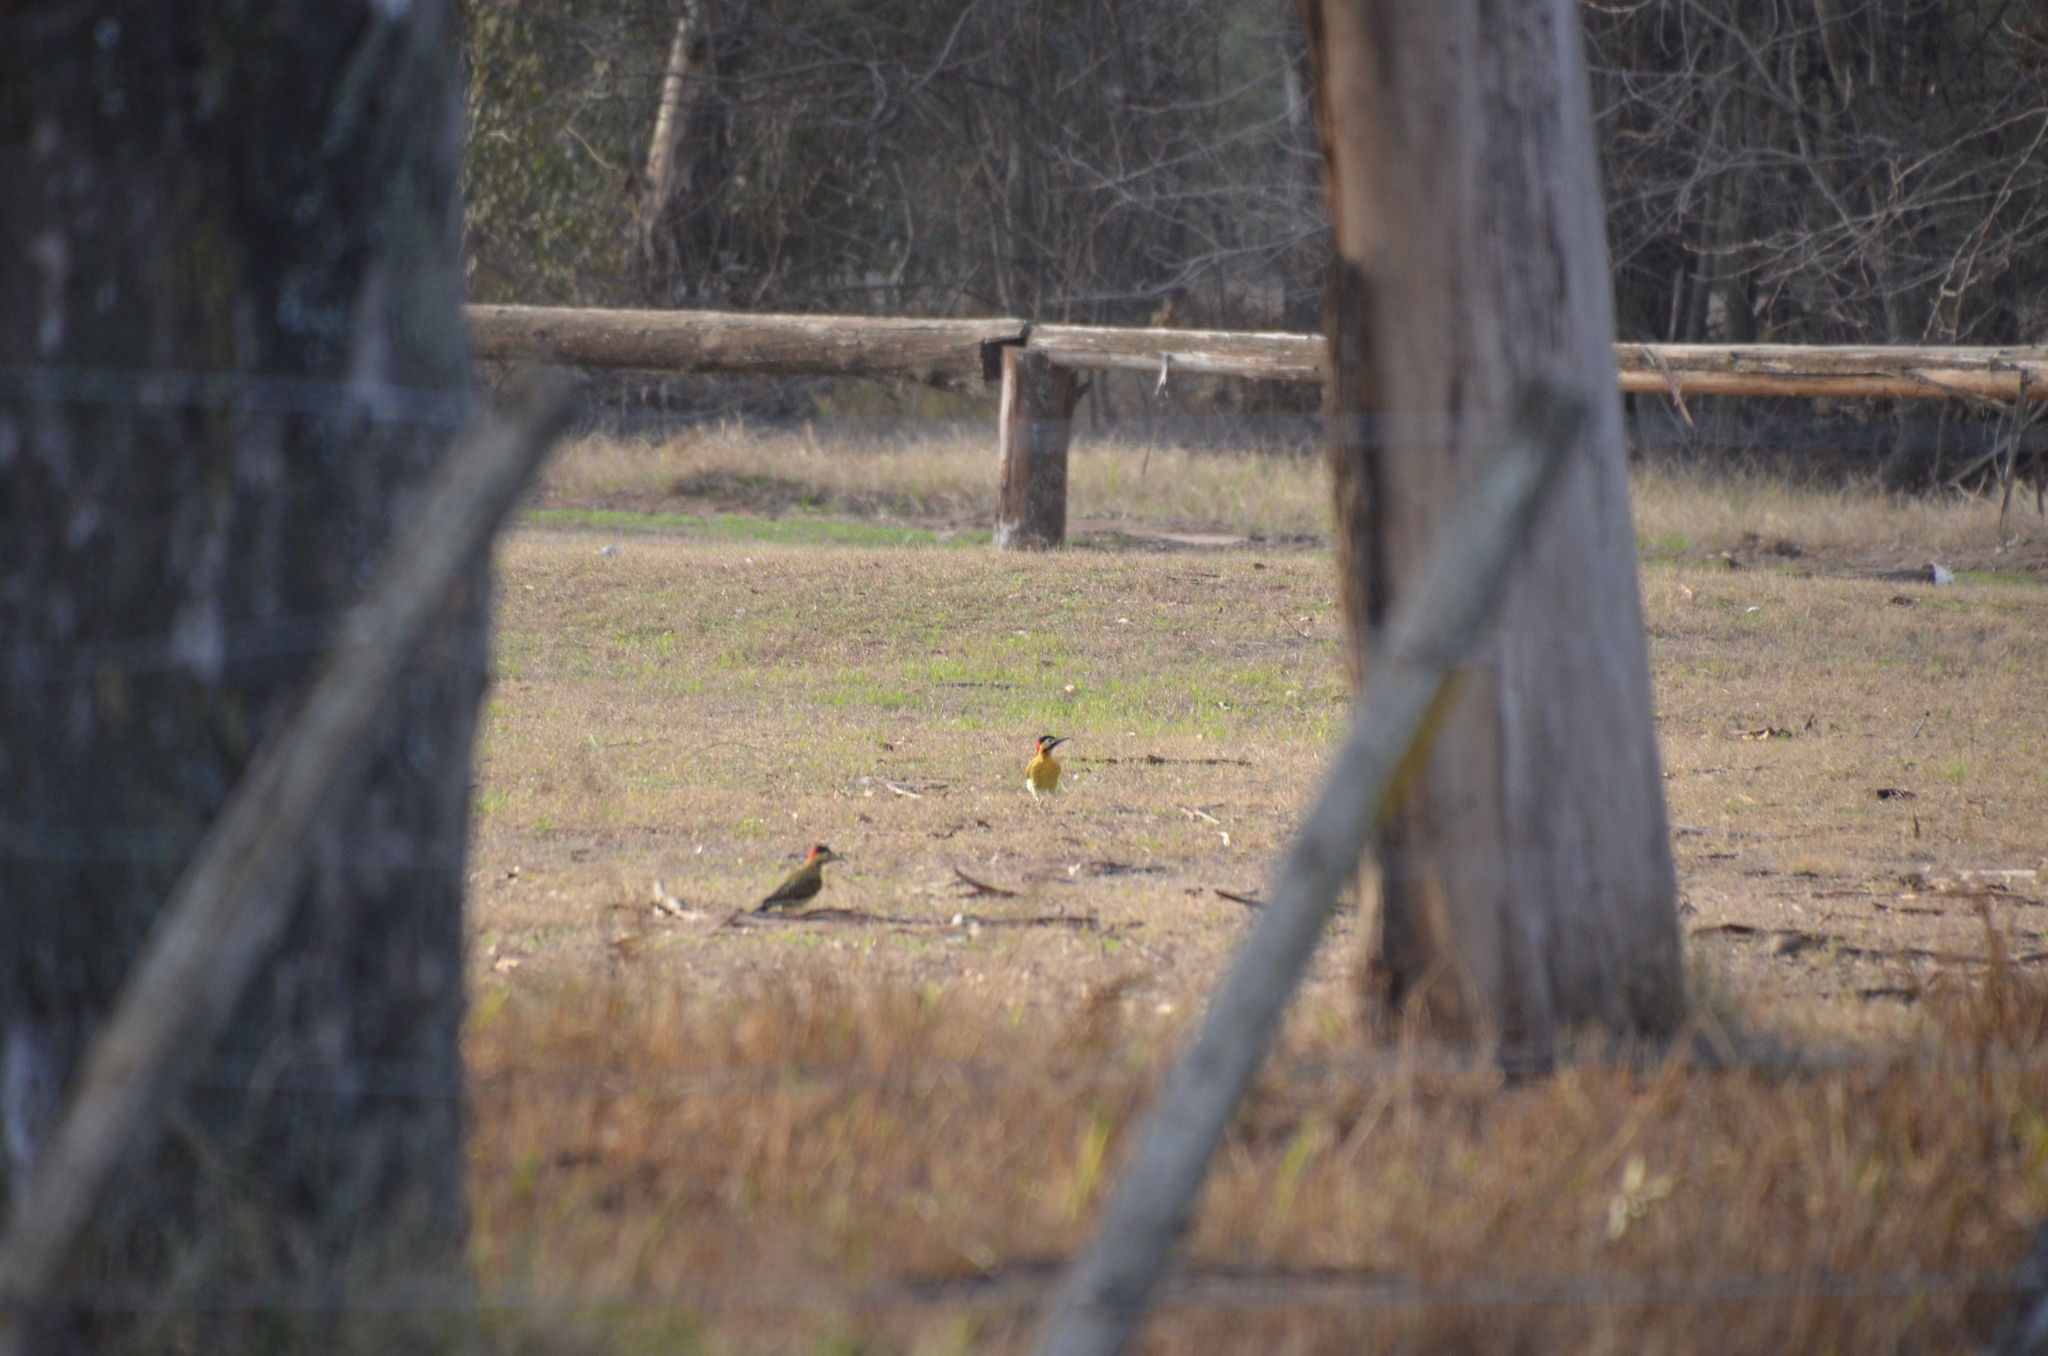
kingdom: Animalia
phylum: Chordata
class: Aves
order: Piciformes
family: Picidae
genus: Colaptes
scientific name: Colaptes melanochloros
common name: Green-barred woodpecker
